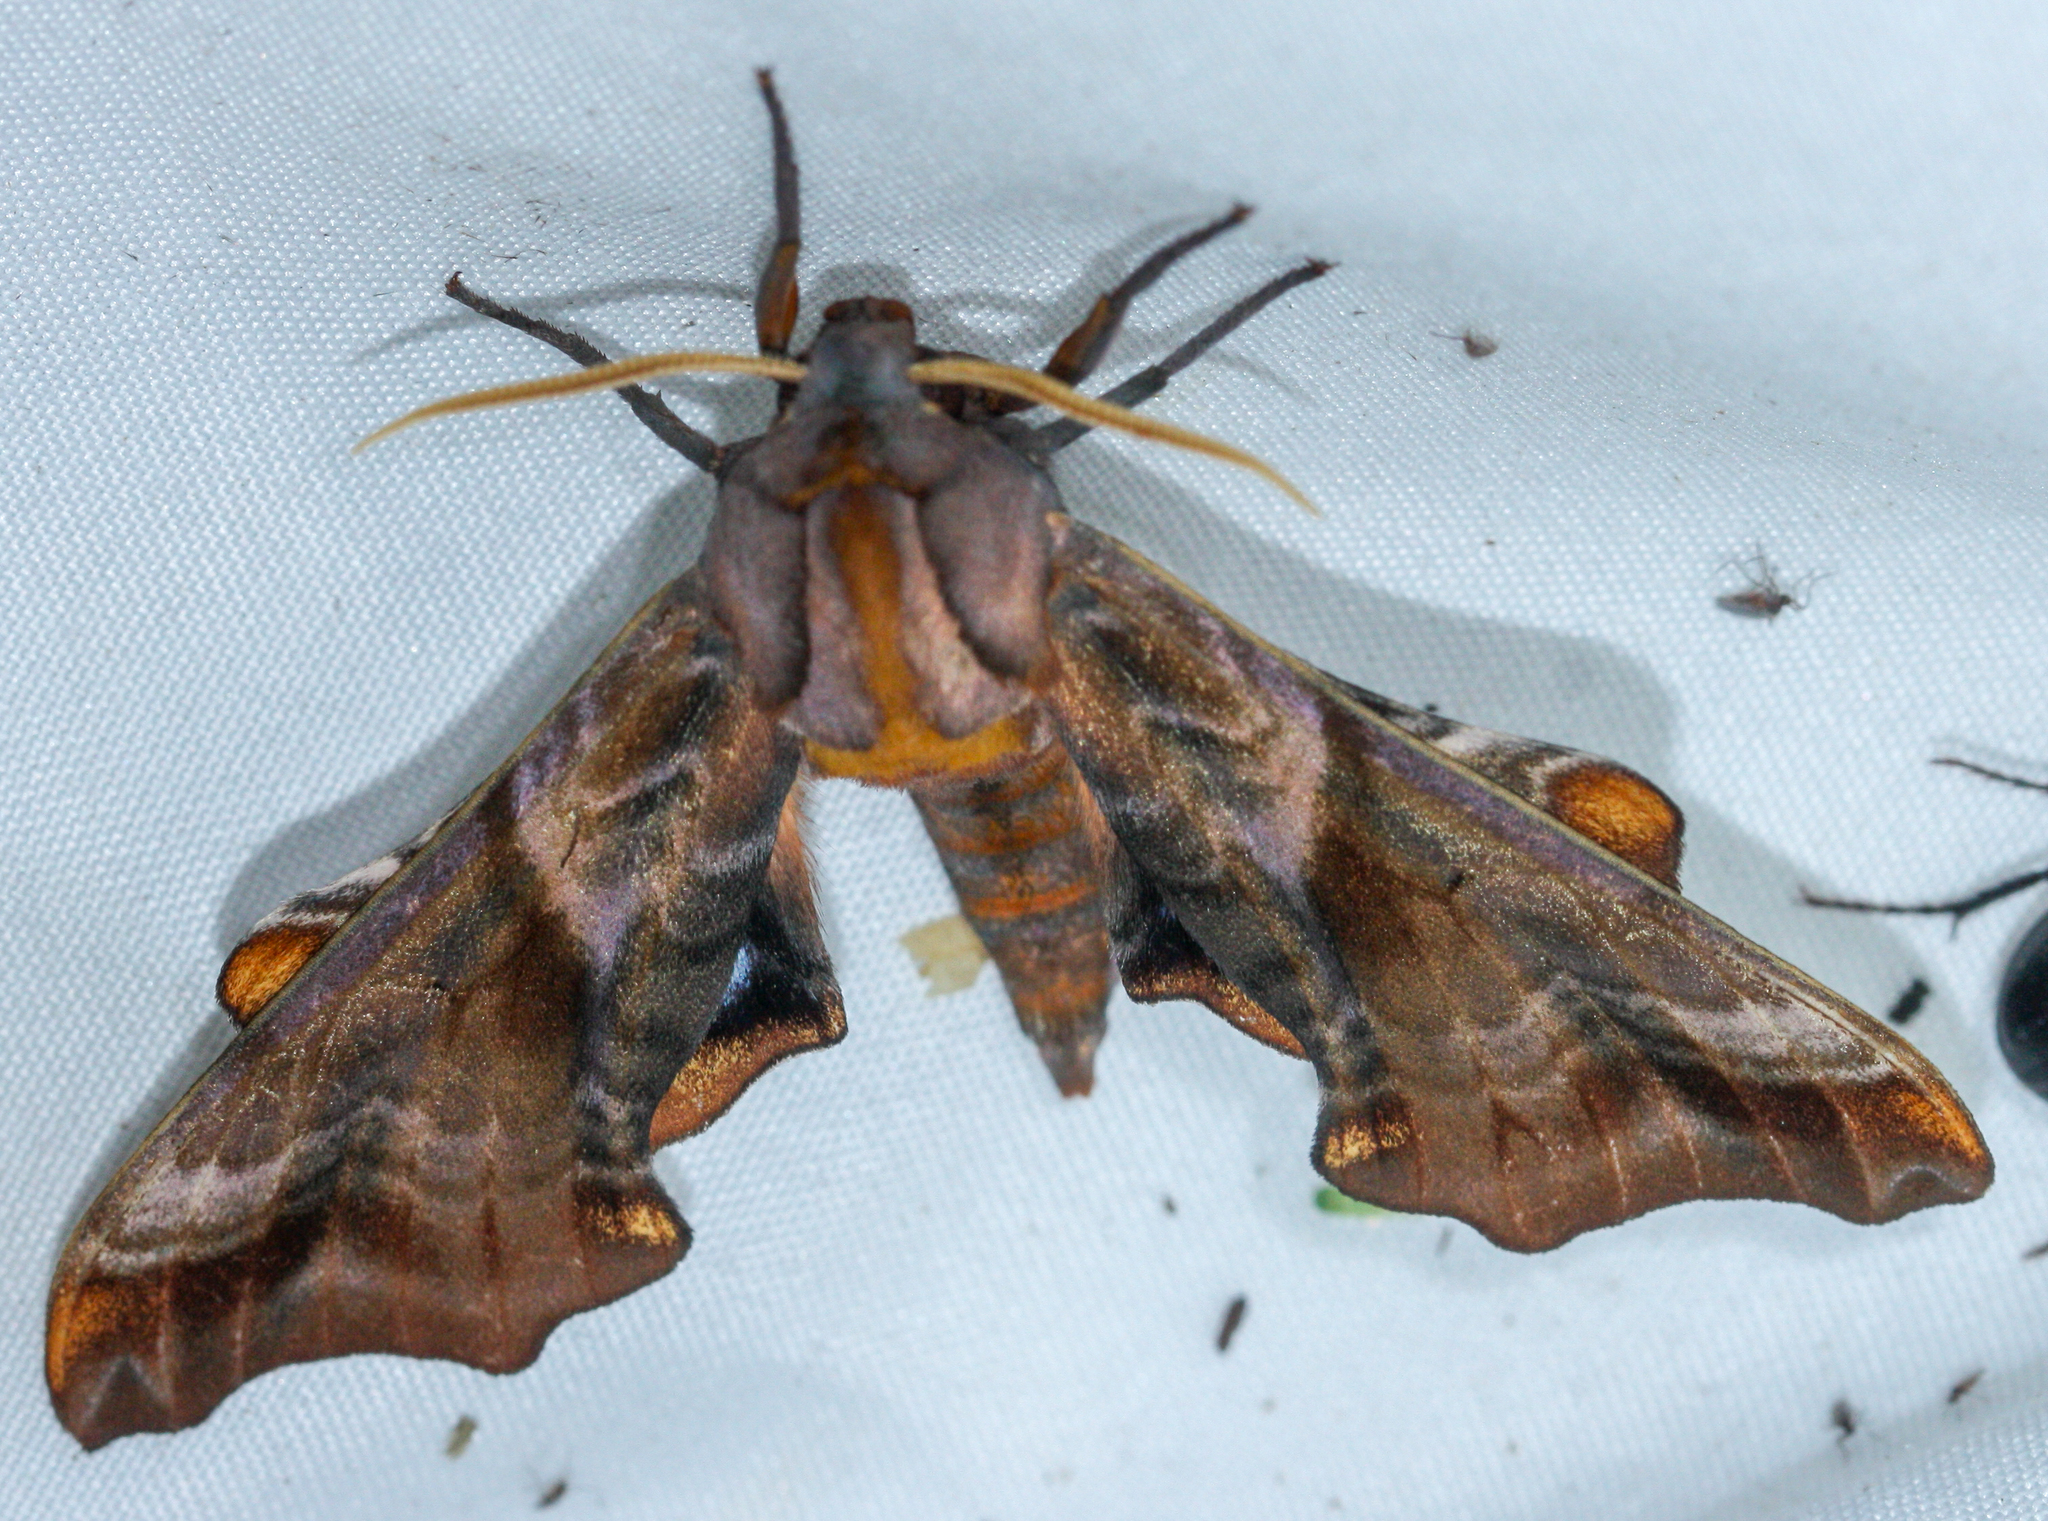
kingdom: Animalia
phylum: Arthropoda
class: Insecta
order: Lepidoptera
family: Sphingidae
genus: Paonias
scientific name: Paonias myops
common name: Small-eyed sphinx
